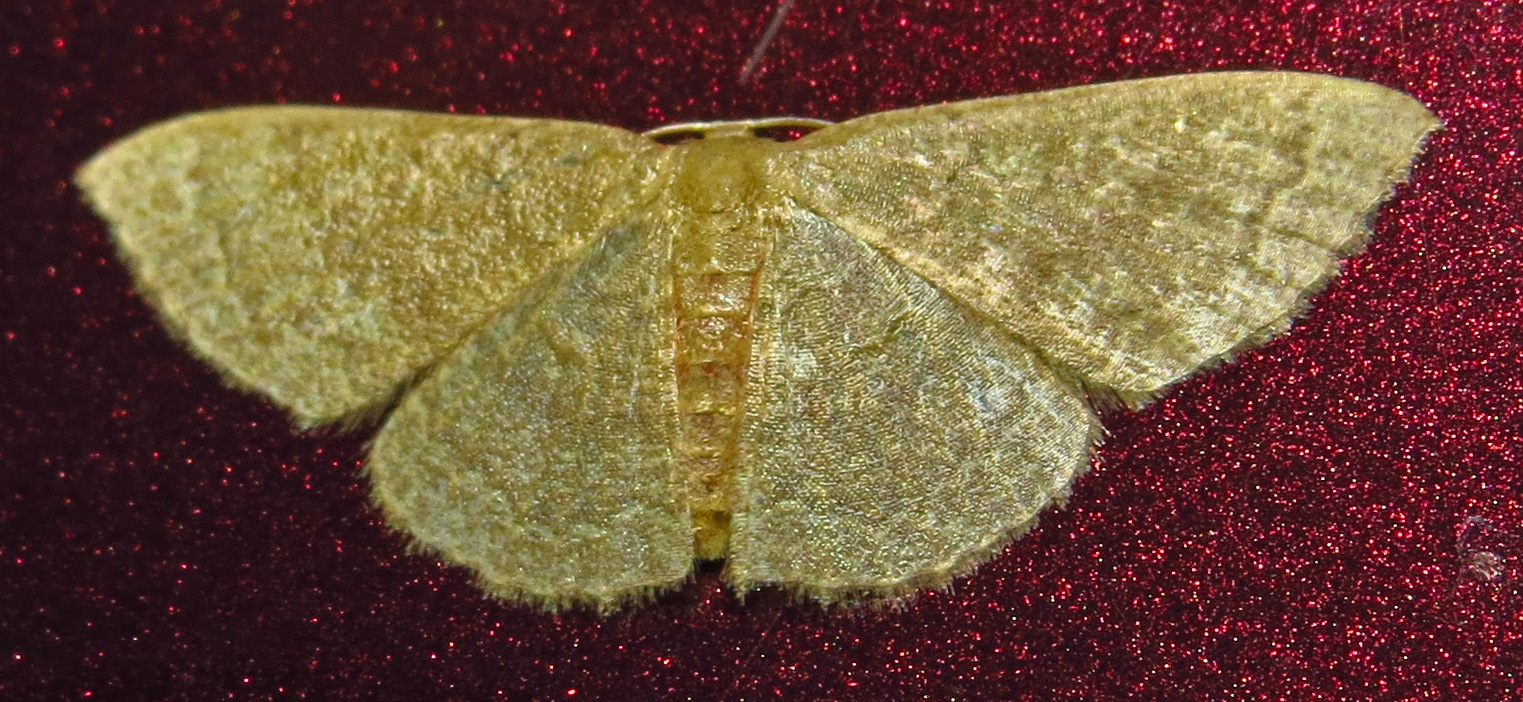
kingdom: Animalia
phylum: Arthropoda
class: Insecta
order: Lepidoptera
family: Geometridae
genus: Pleuroprucha
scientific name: Pleuroprucha insulsaria
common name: Common tan wave
